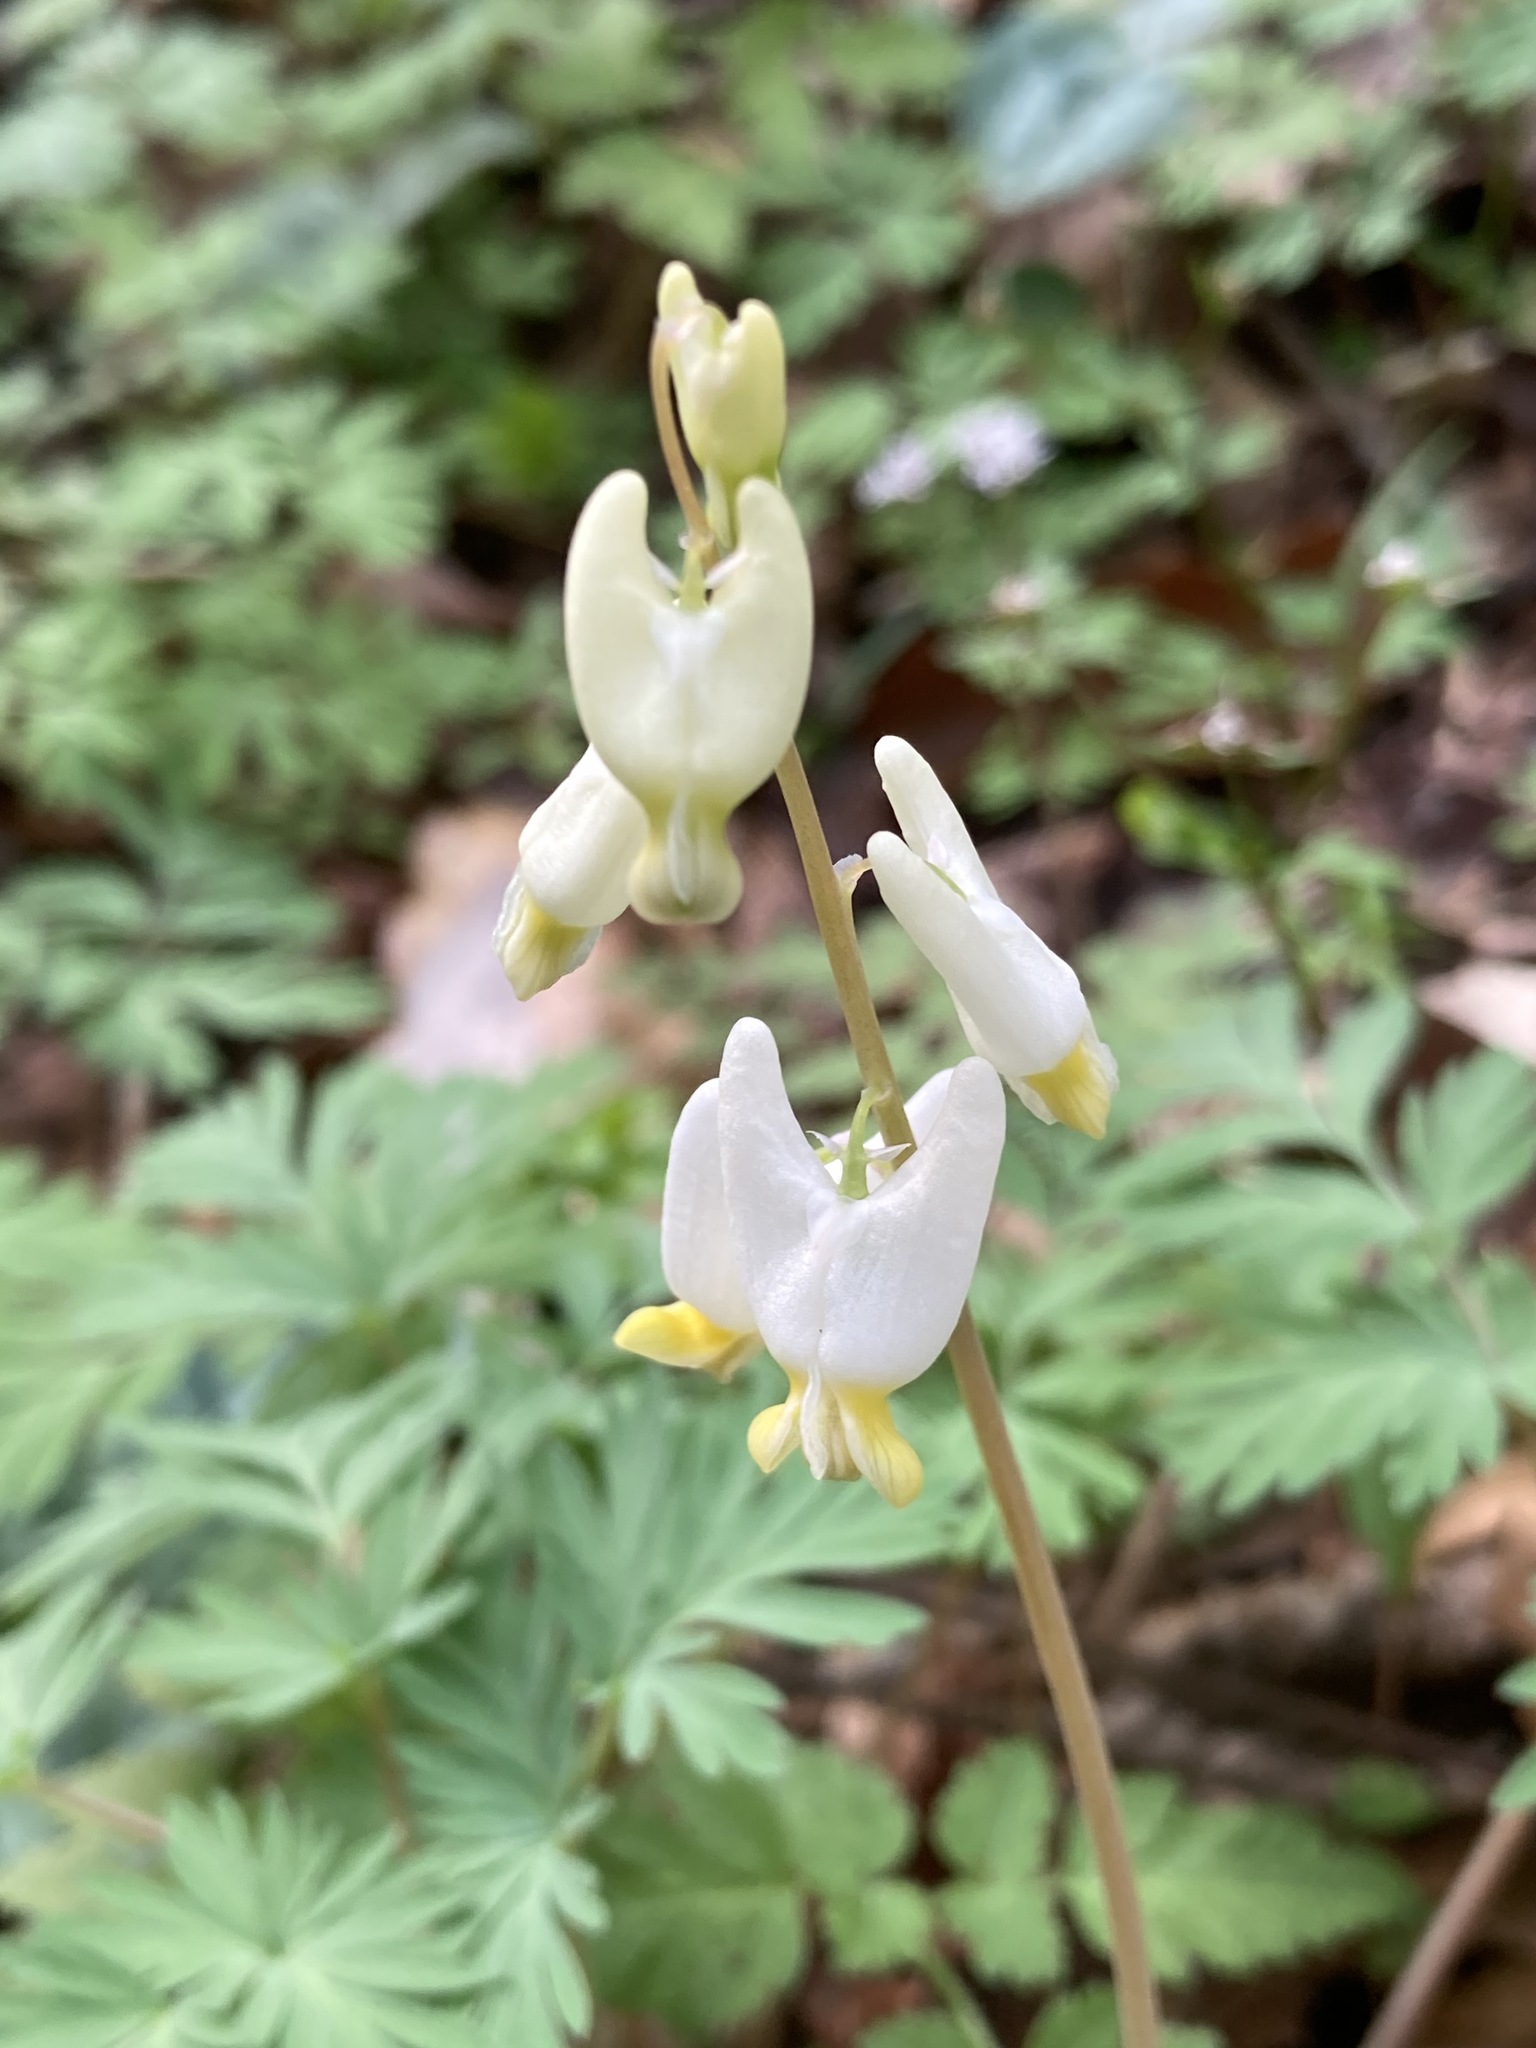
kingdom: Plantae
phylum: Tracheophyta
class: Magnoliopsida
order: Ranunculales
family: Papaveraceae
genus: Dicentra
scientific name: Dicentra cucullaria
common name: Dutchman's breeches
